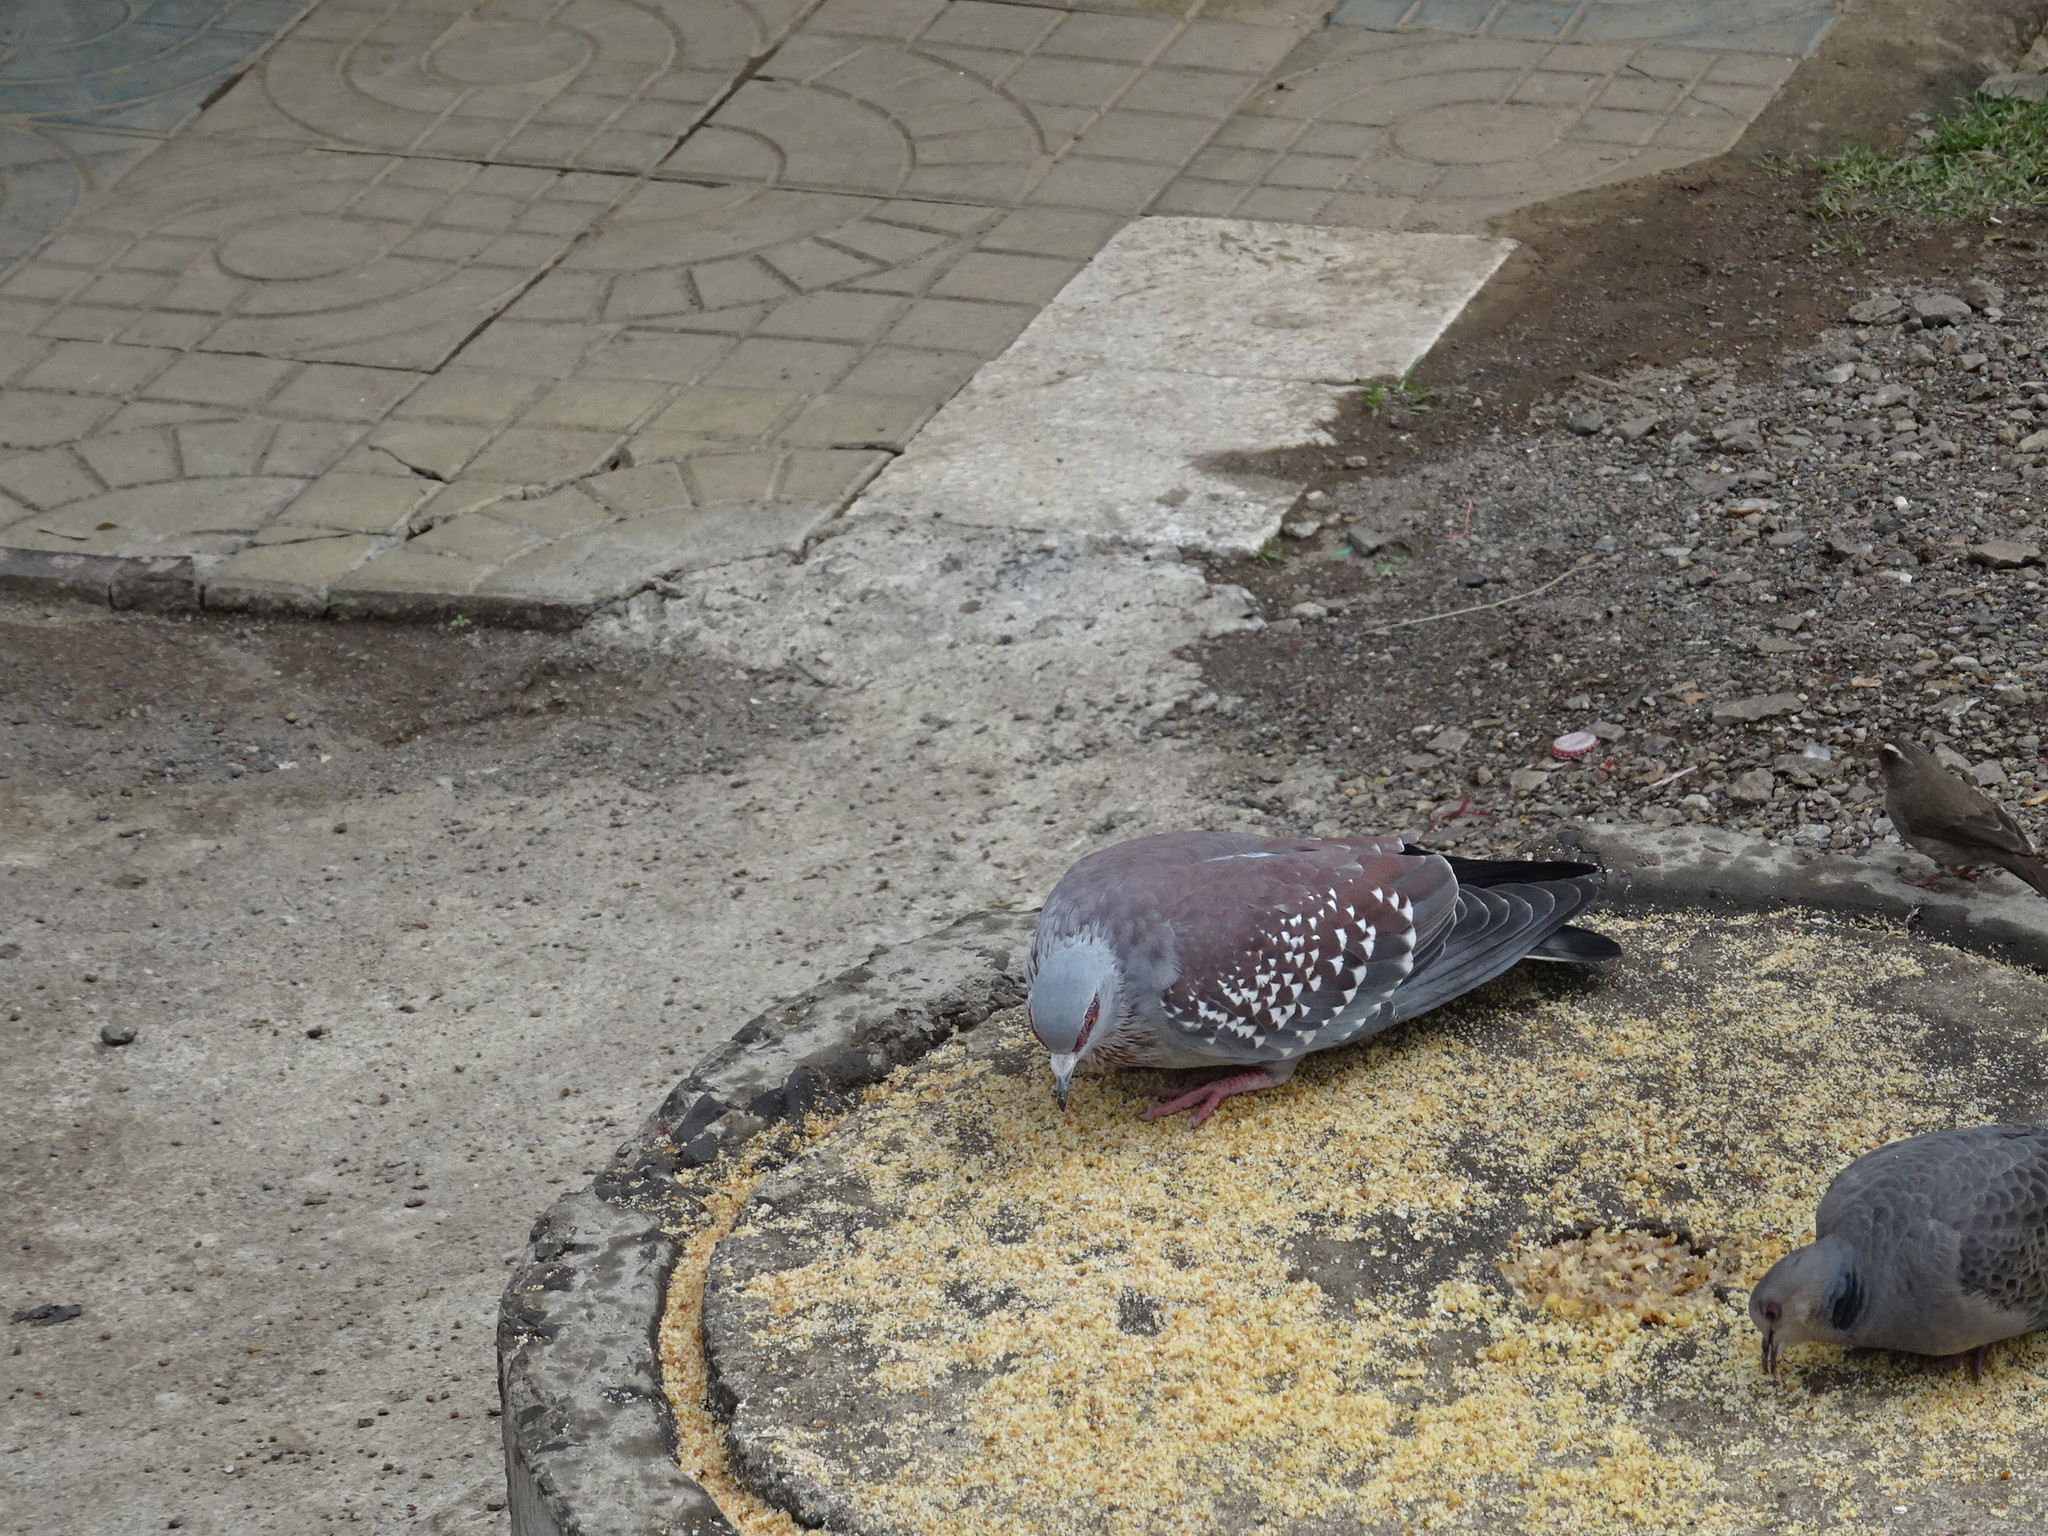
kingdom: Animalia
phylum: Chordata
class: Aves
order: Columbiformes
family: Columbidae
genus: Columba
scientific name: Columba guinea
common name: Speckled pigeon
